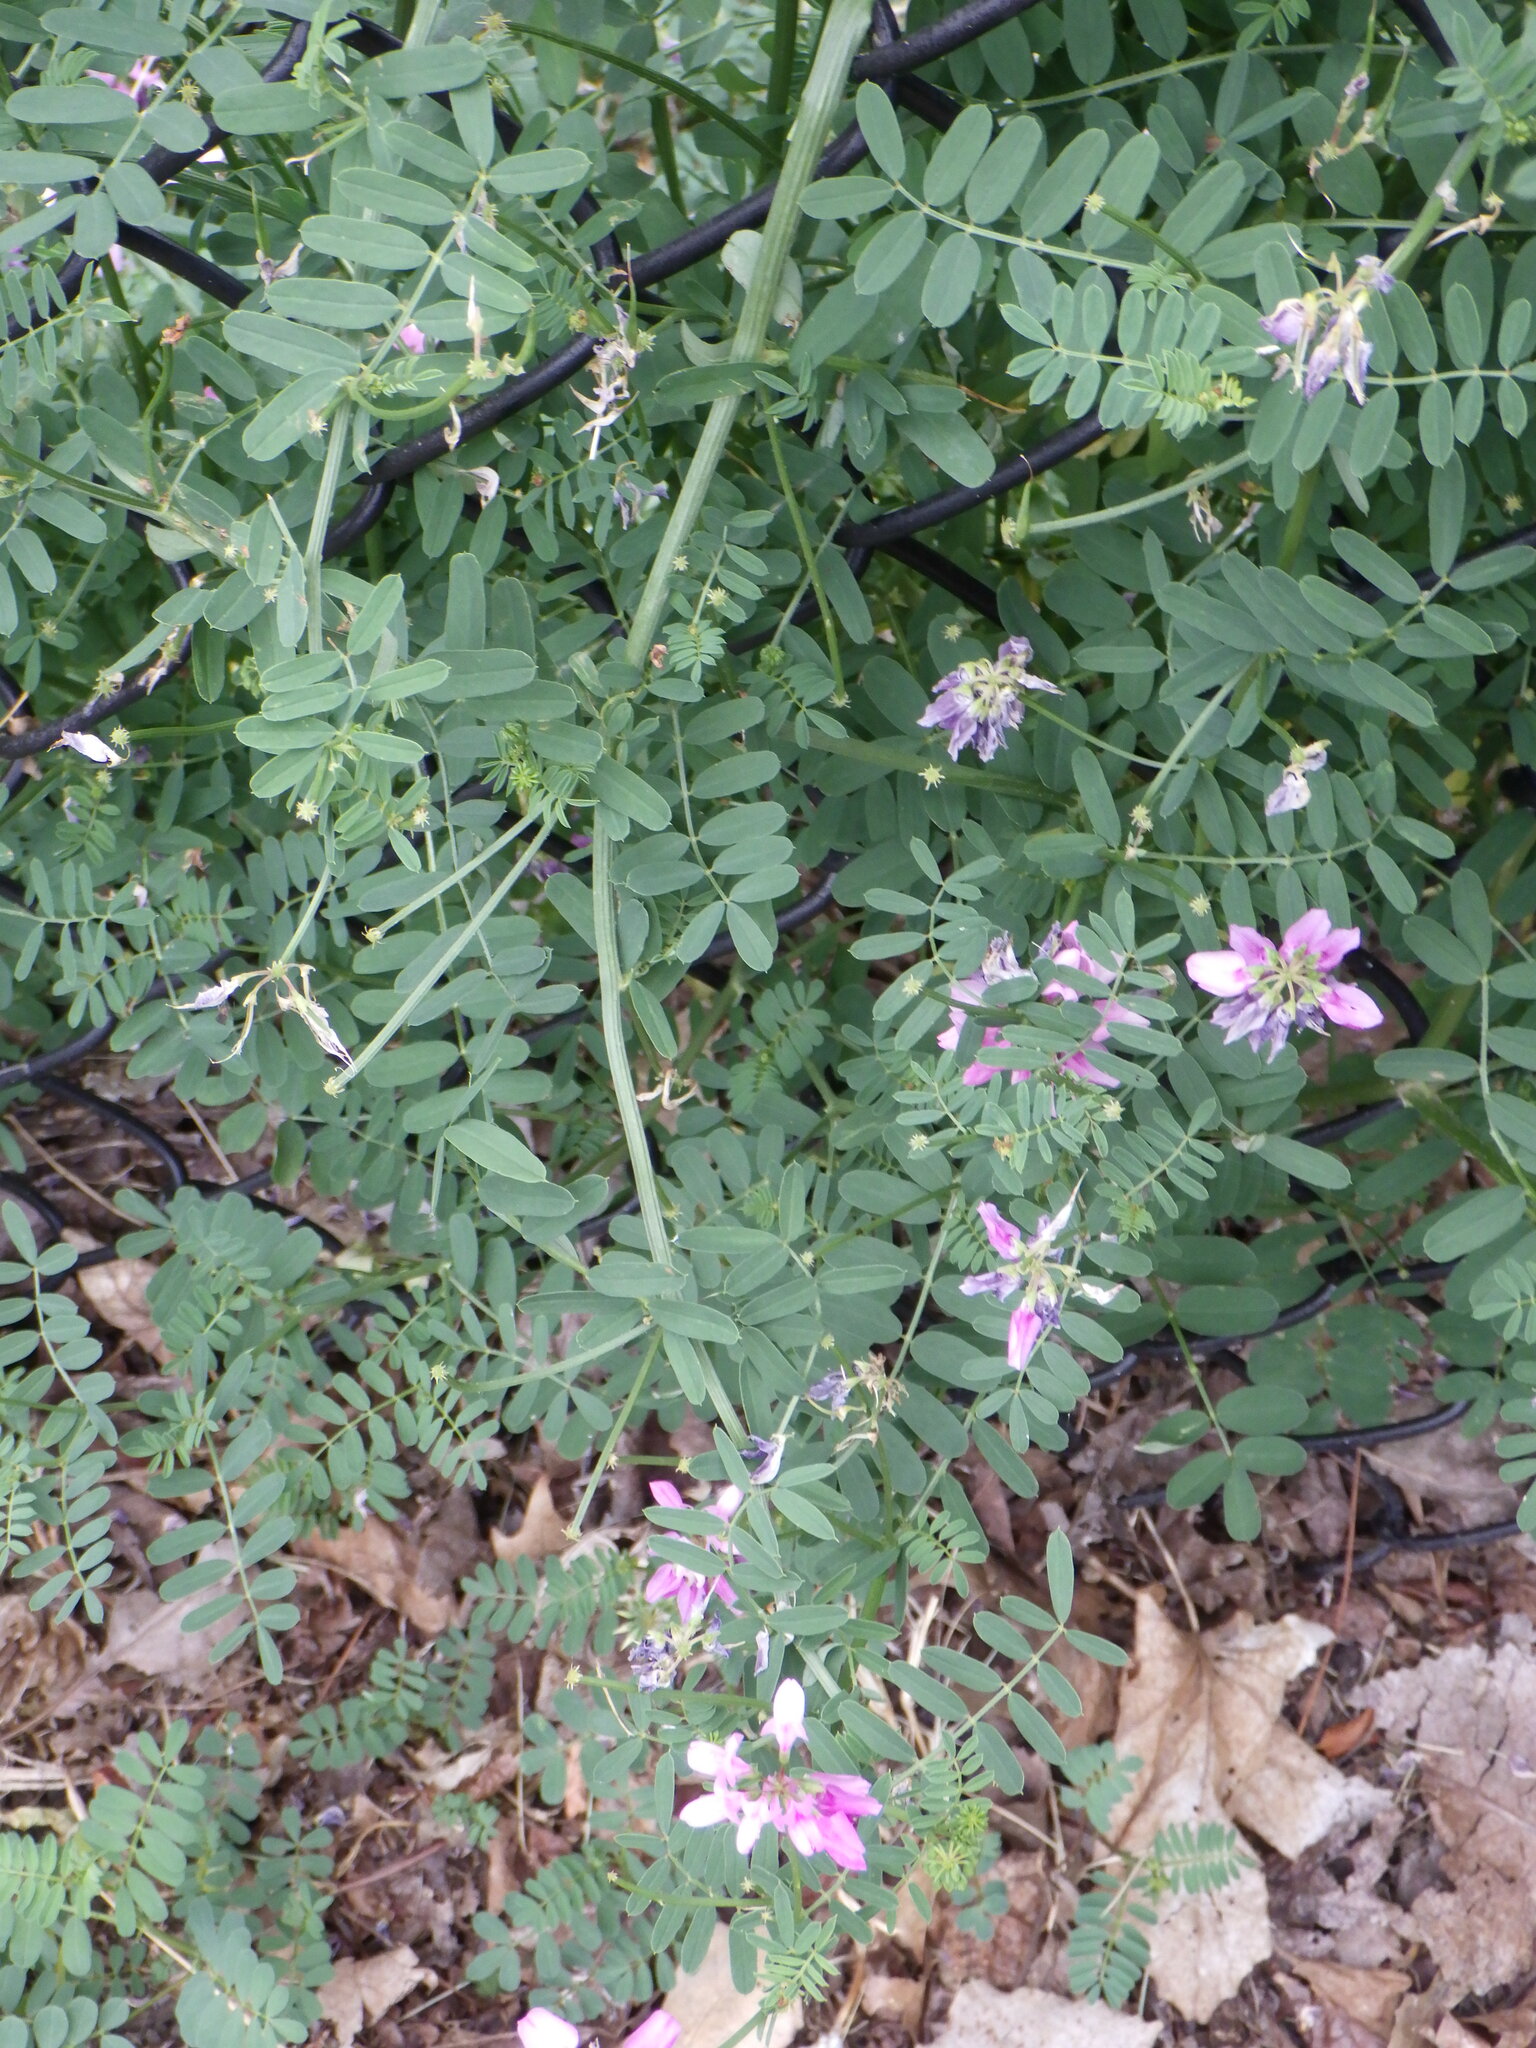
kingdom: Plantae
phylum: Tracheophyta
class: Magnoliopsida
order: Fabales
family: Fabaceae
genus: Coronilla
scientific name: Coronilla varia
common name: Crownvetch
